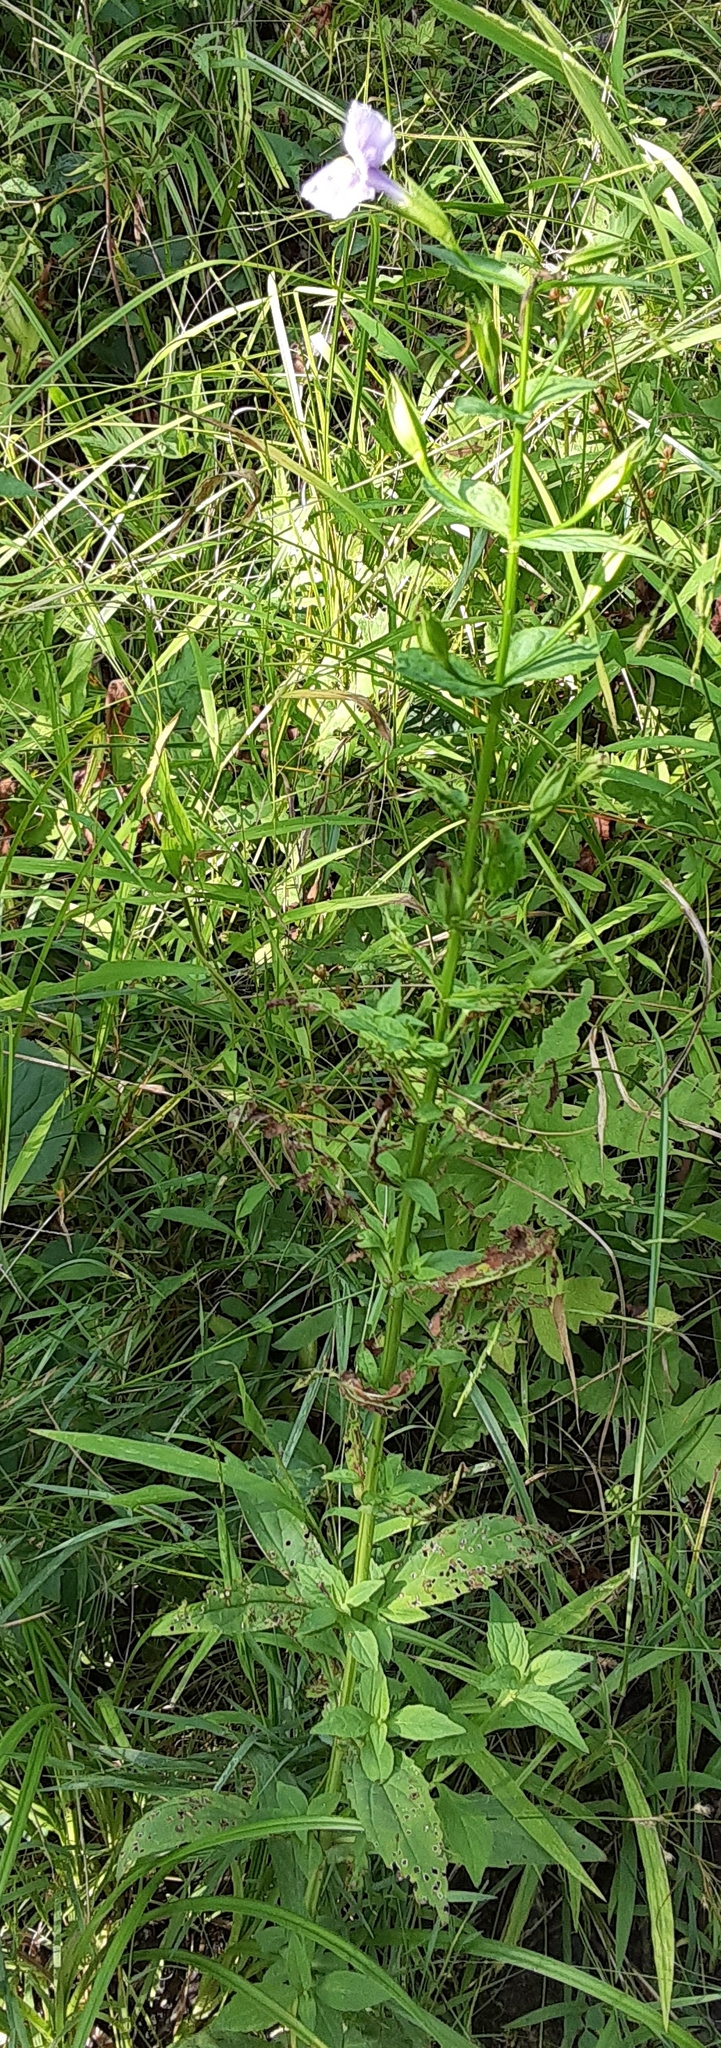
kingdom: Plantae
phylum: Tracheophyta
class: Magnoliopsida
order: Lamiales
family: Phrymaceae
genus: Mimulus
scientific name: Mimulus ringens
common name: Allegheny monkeyflower
